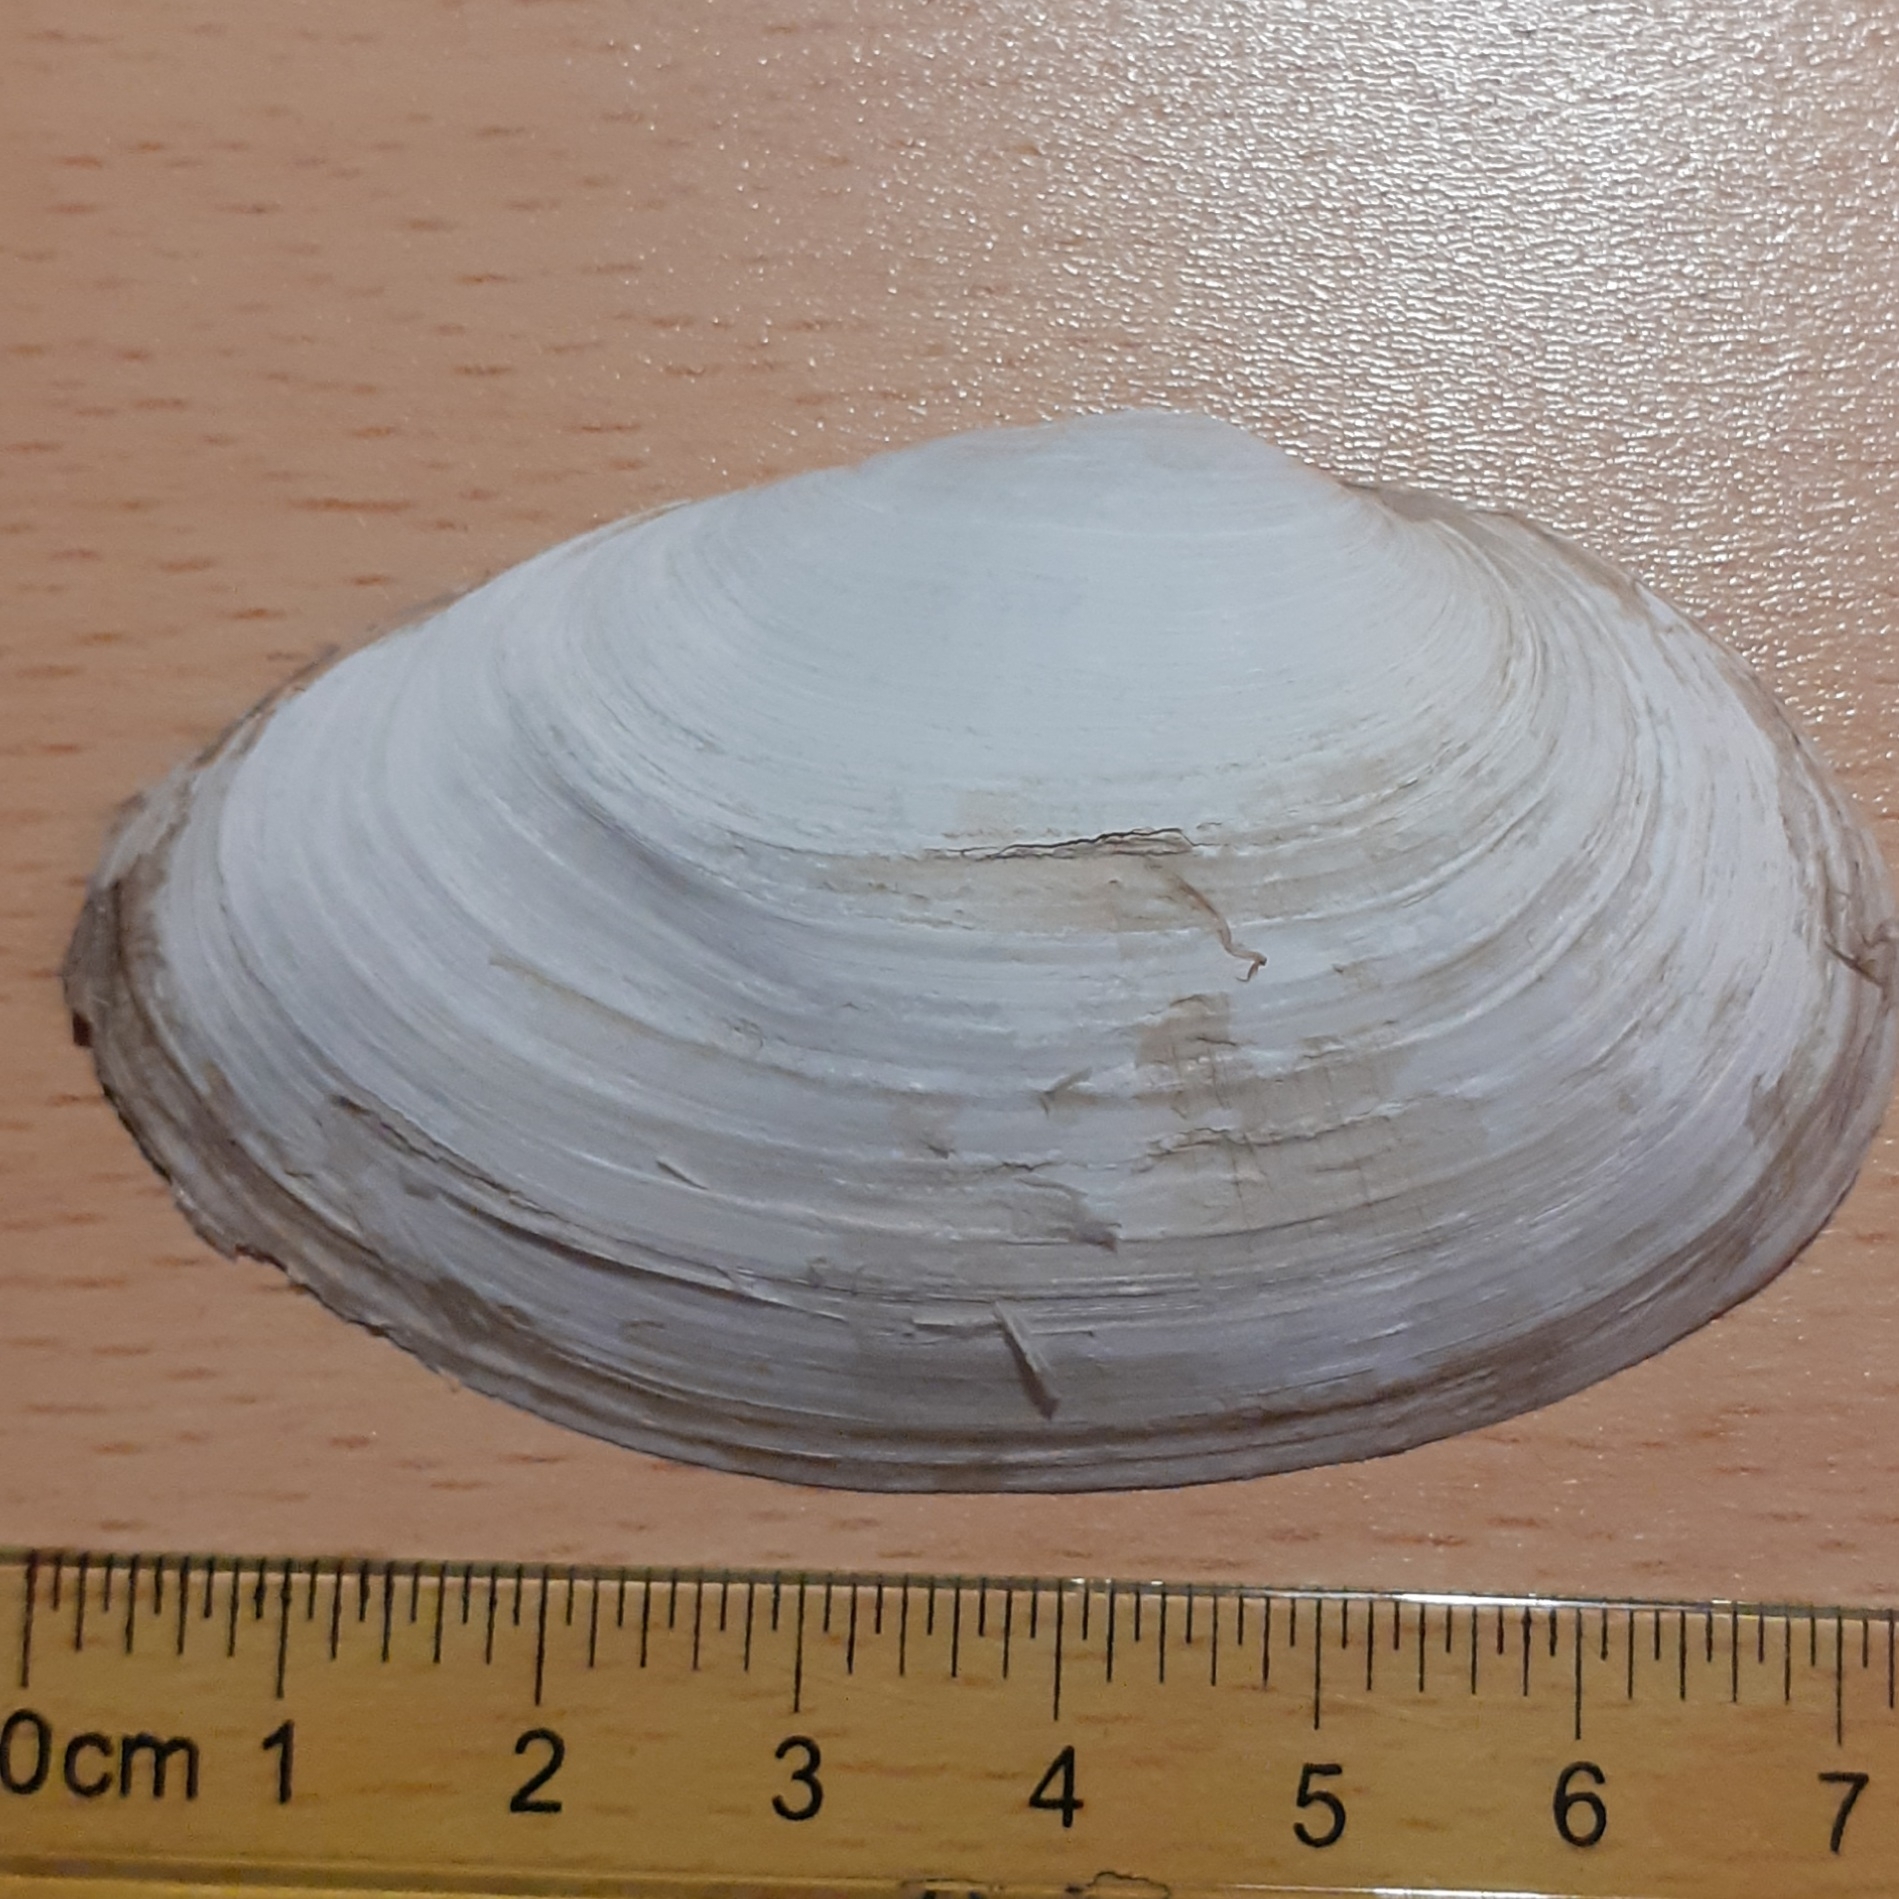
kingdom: Animalia
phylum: Mollusca
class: Bivalvia
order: Myida
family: Myidae
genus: Mya
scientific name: Mya arenaria
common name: Soft-shelled clam
